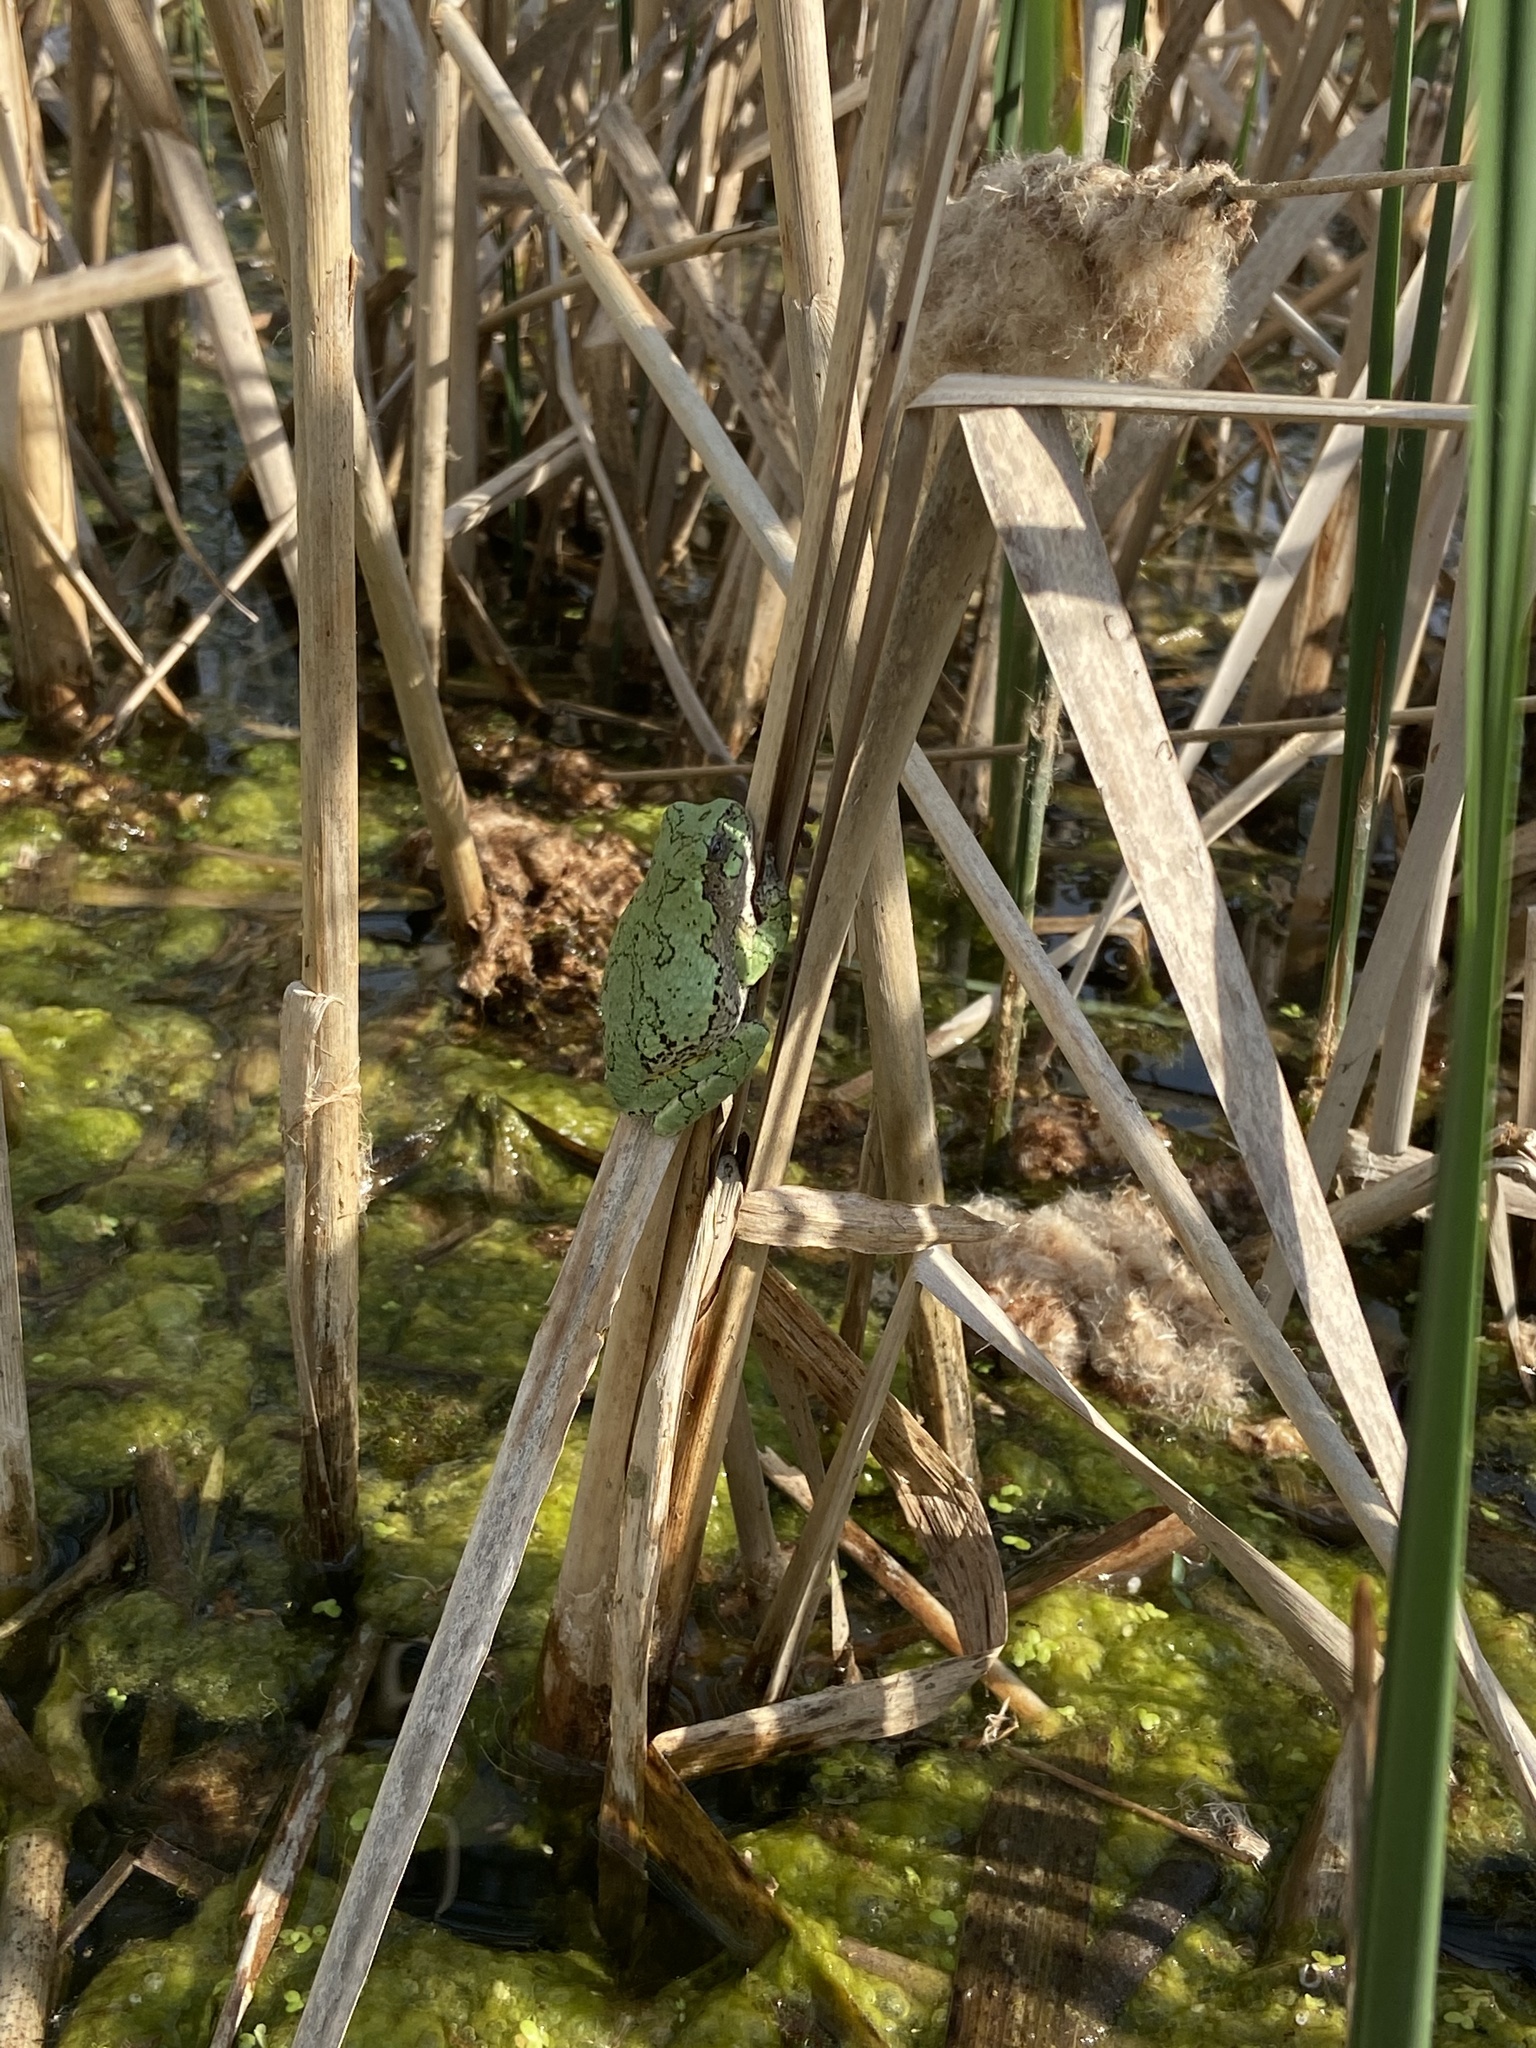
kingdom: Animalia
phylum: Chordata
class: Amphibia
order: Anura
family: Hylidae
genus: Dryophytes
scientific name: Dryophytes versicolor
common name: Gray treefrog
